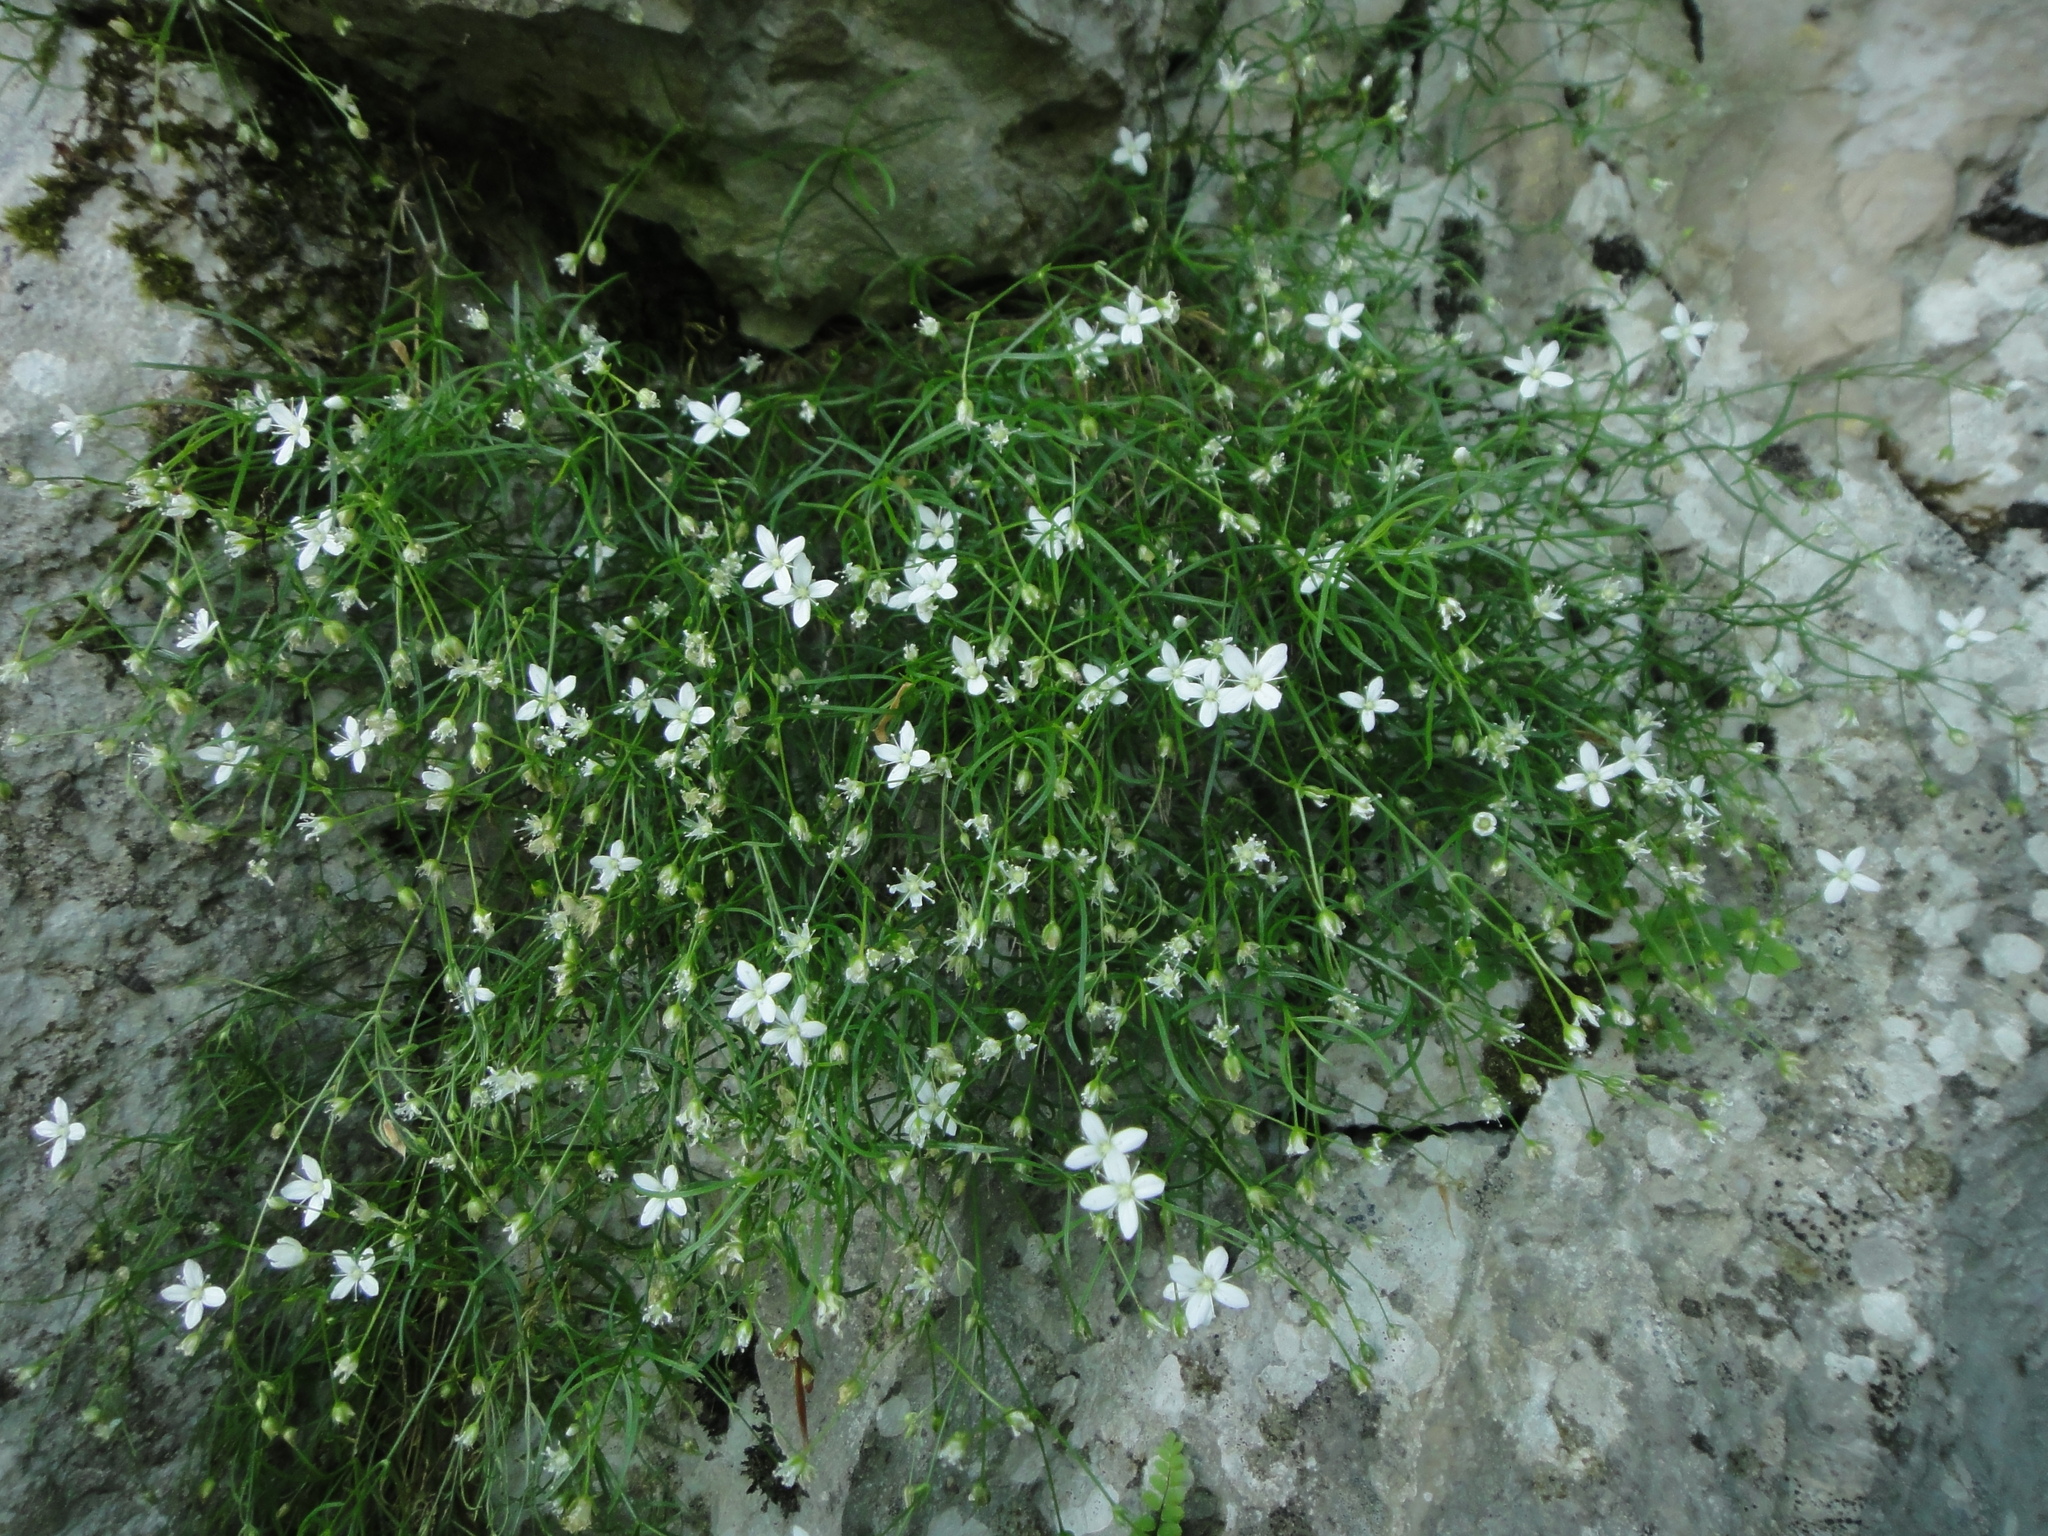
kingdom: Plantae
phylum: Tracheophyta
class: Magnoliopsida
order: Caryophyllales
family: Caryophyllaceae
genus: Moehringia
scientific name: Moehringia muscosa
